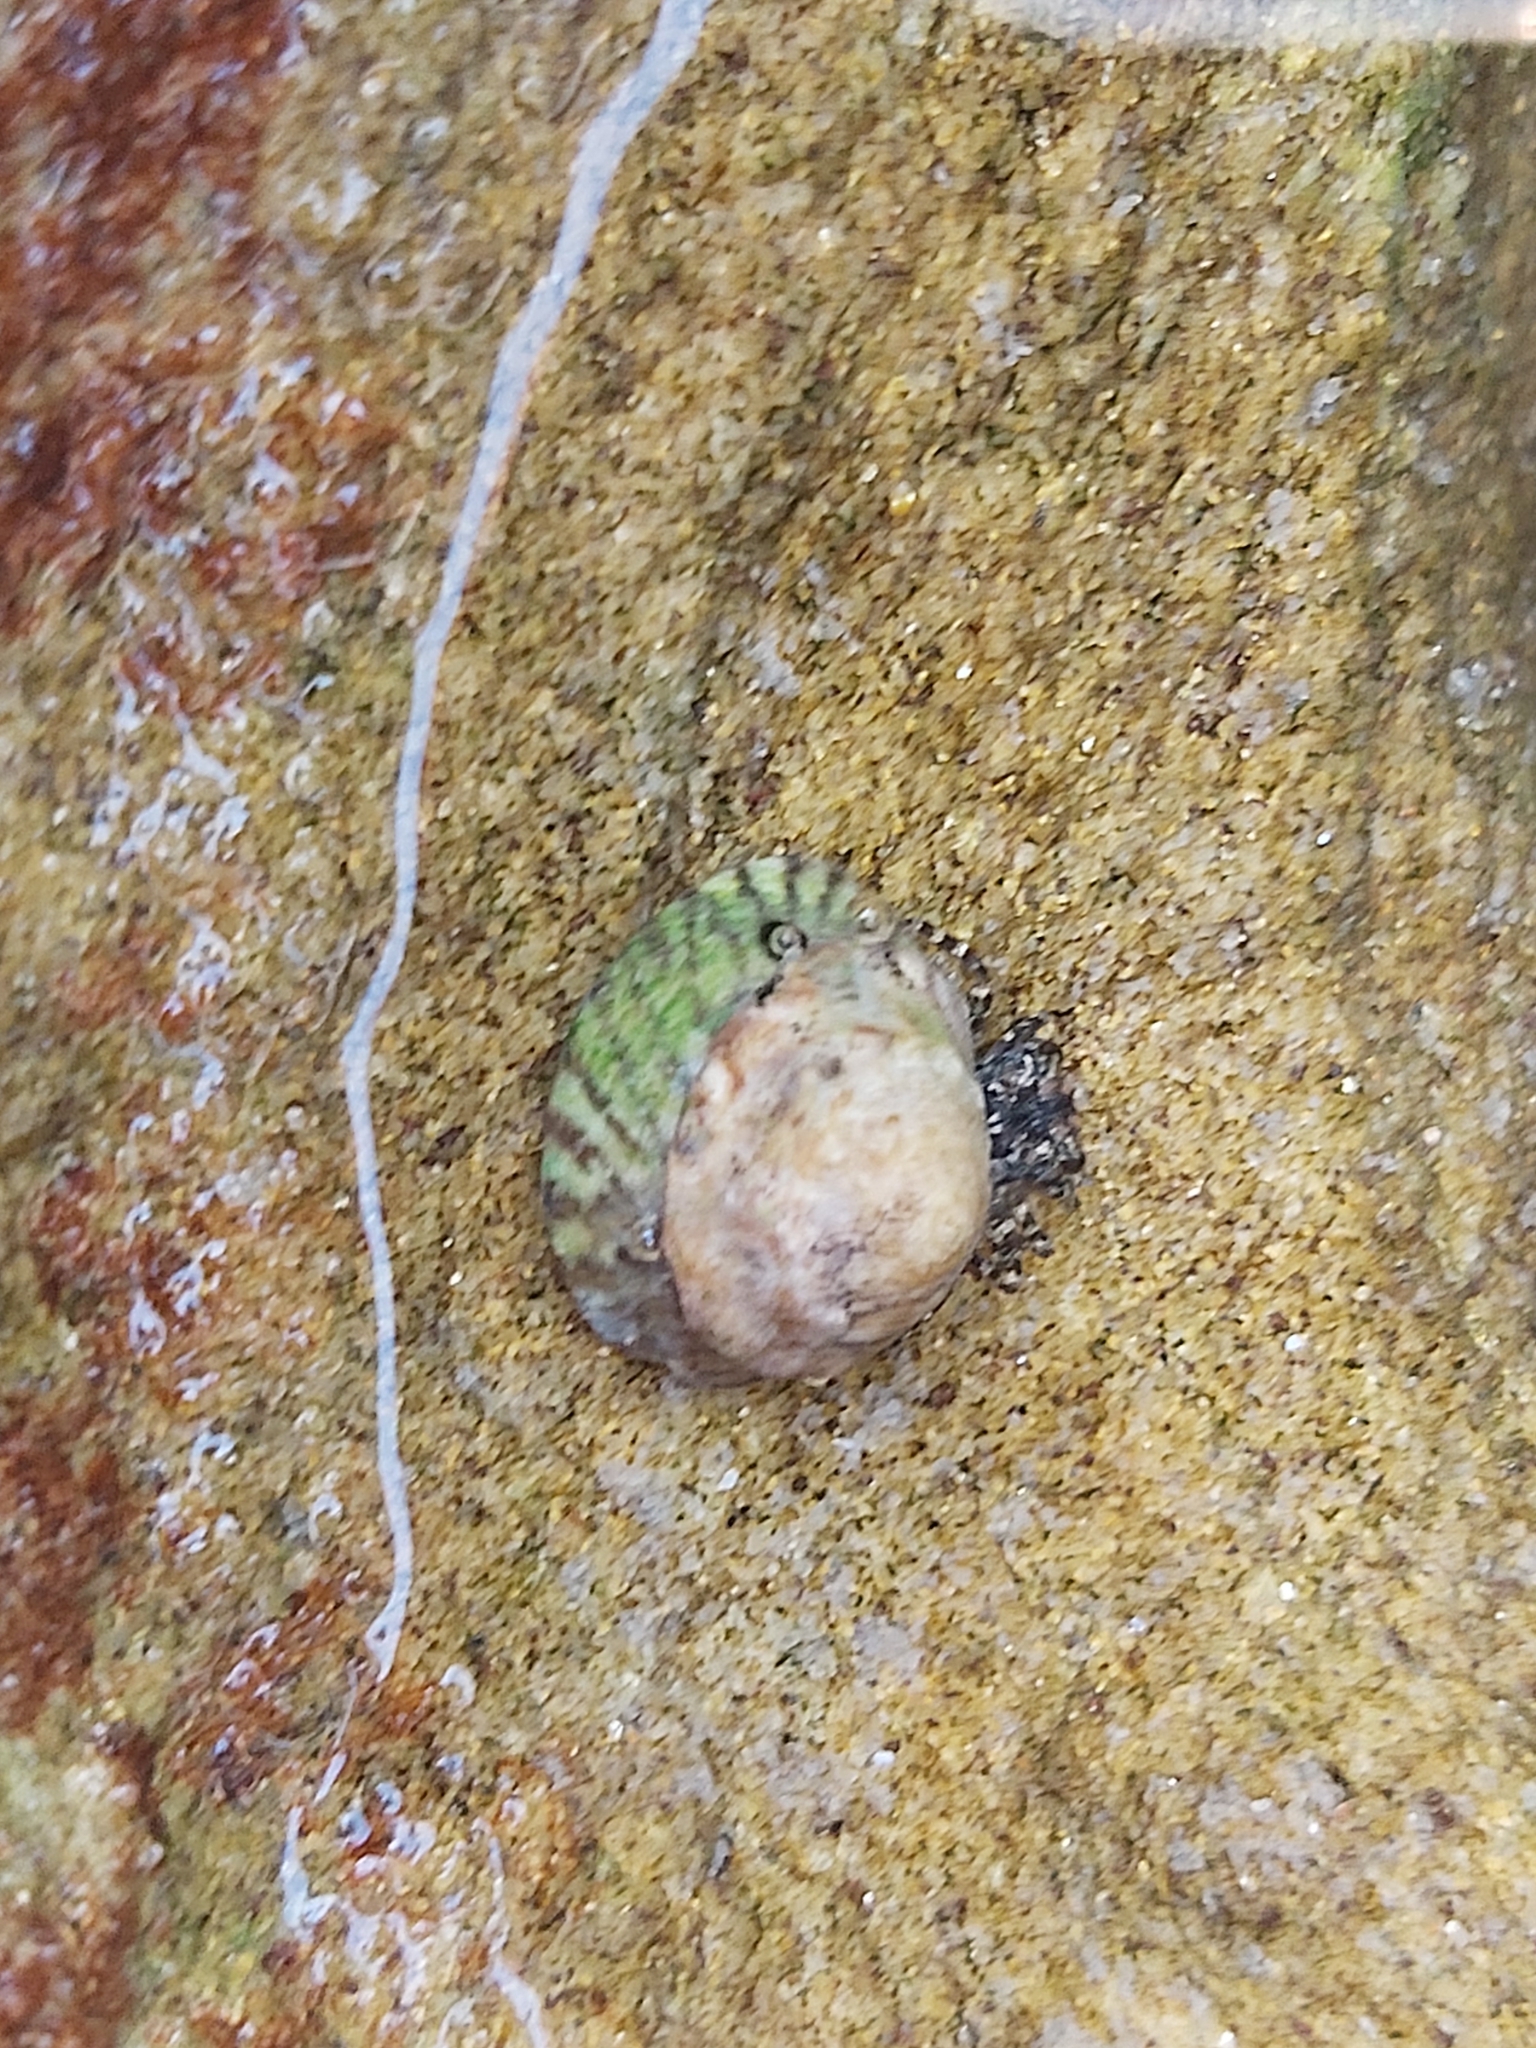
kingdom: Animalia
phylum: Mollusca
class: Gastropoda
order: Littorinimorpha
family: Littorinidae
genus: Bembicium
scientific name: Bembicium nanum
